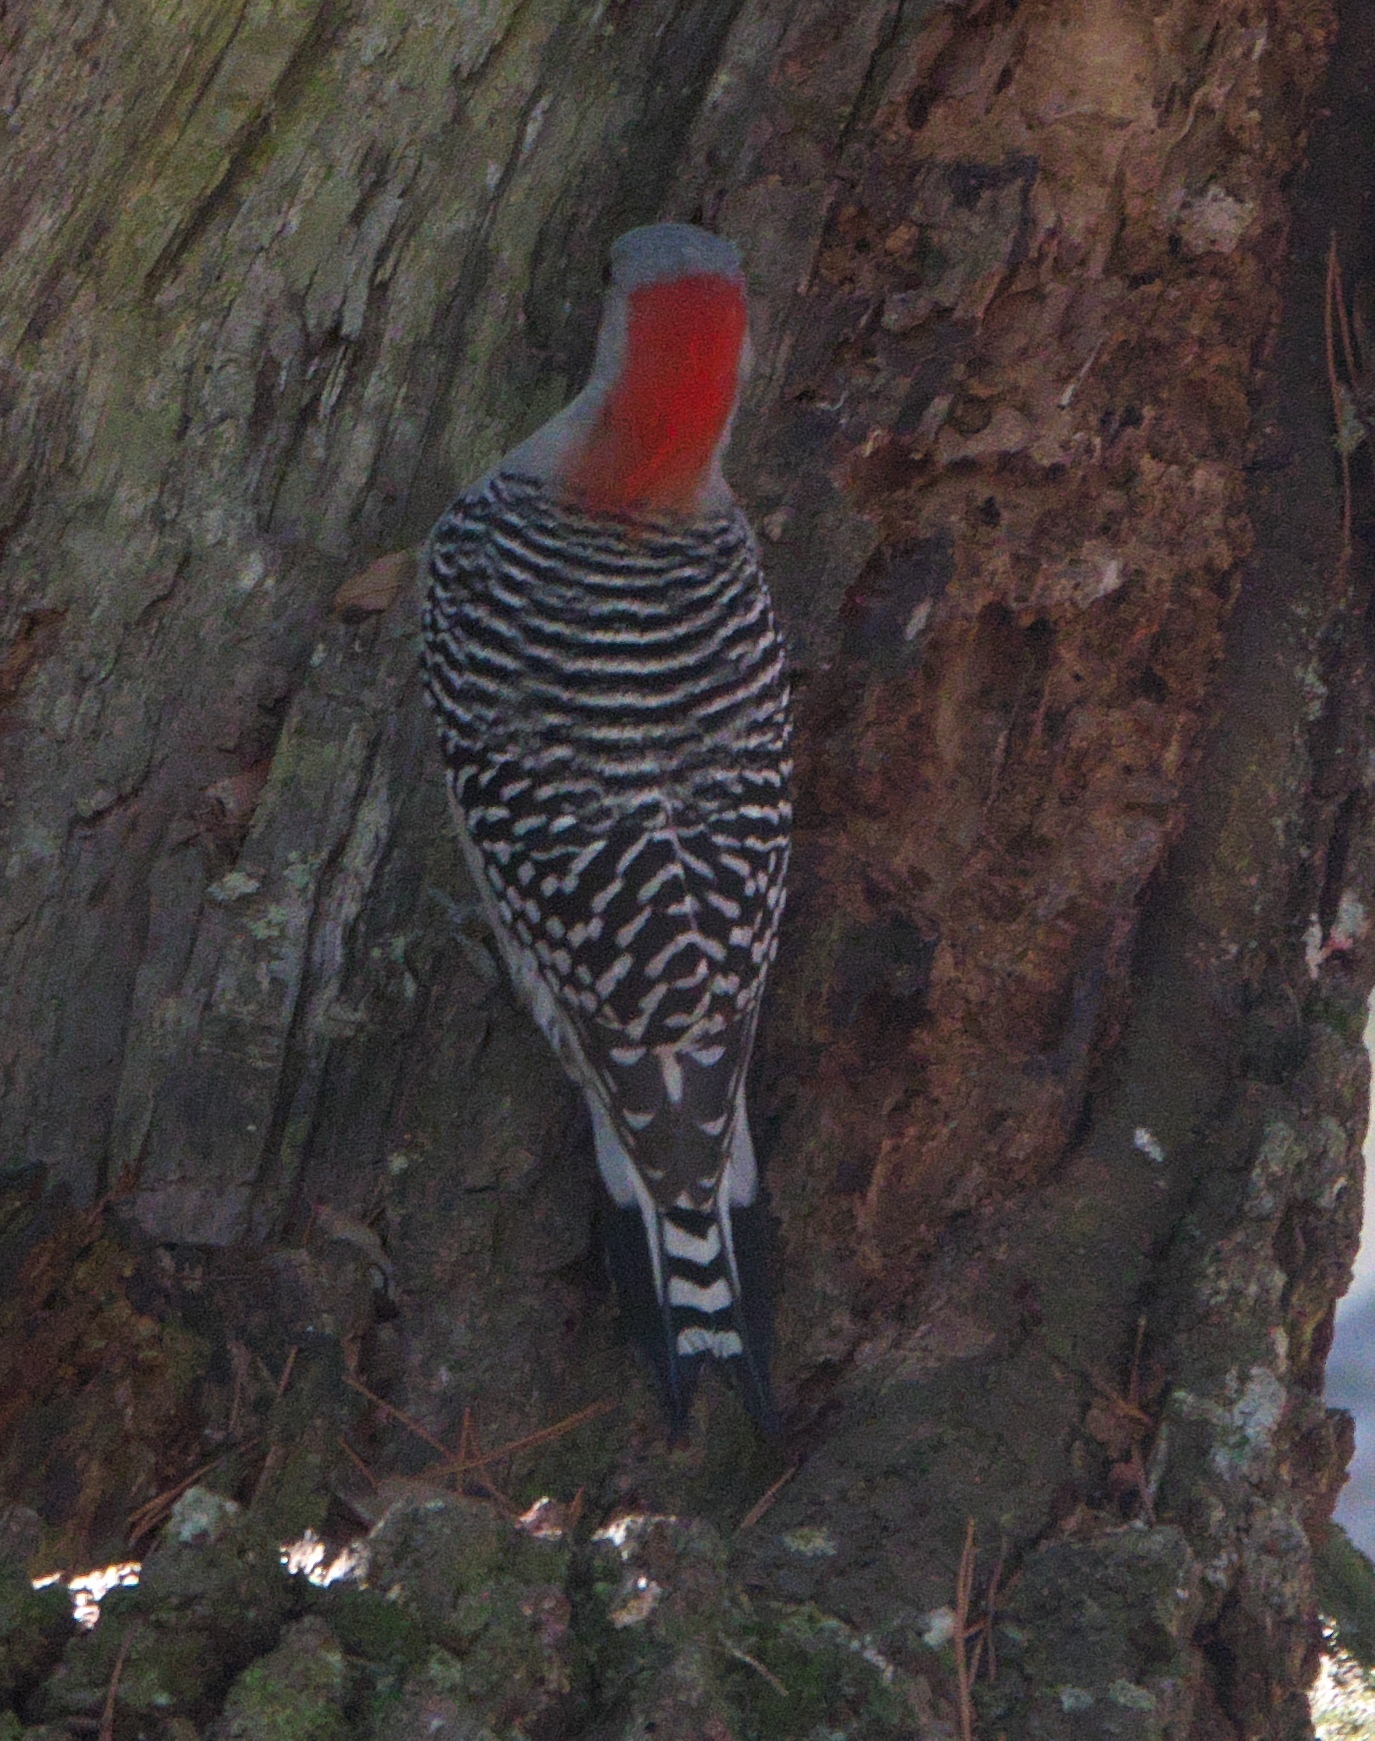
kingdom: Animalia
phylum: Chordata
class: Aves
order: Piciformes
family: Picidae
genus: Melanerpes
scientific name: Melanerpes carolinus
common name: Red-bellied woodpecker
